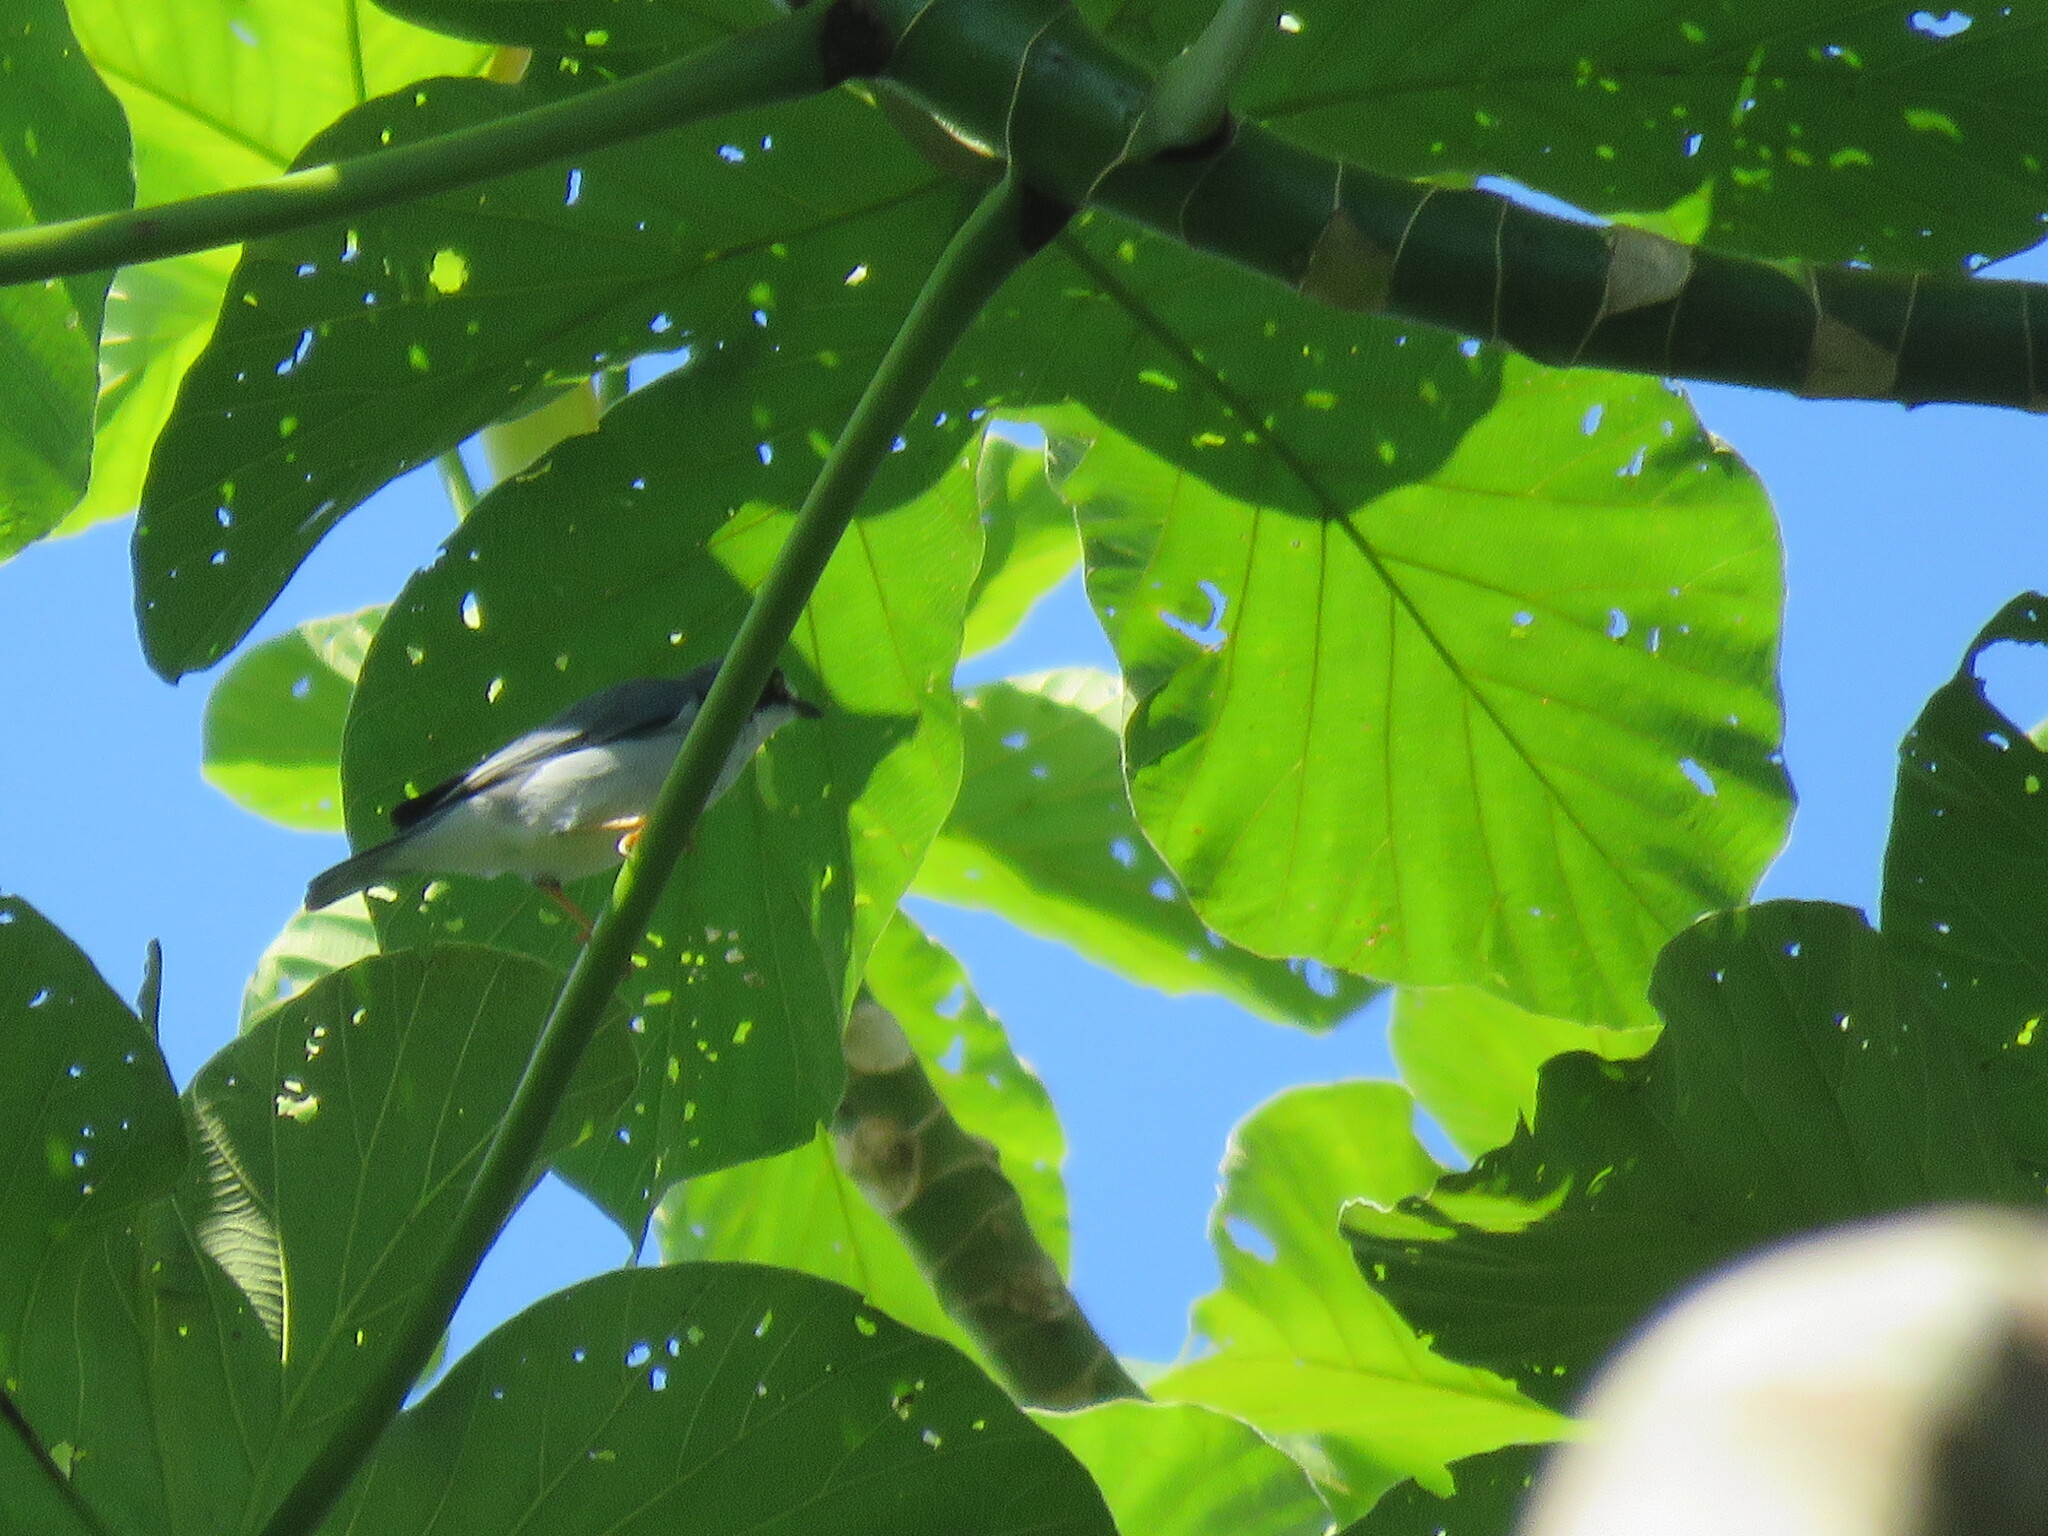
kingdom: Animalia
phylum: Chordata
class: Aves
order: Passeriformes
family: Thraupidae
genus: Nemosia
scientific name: Nemosia pileata
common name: Hooded tanager
